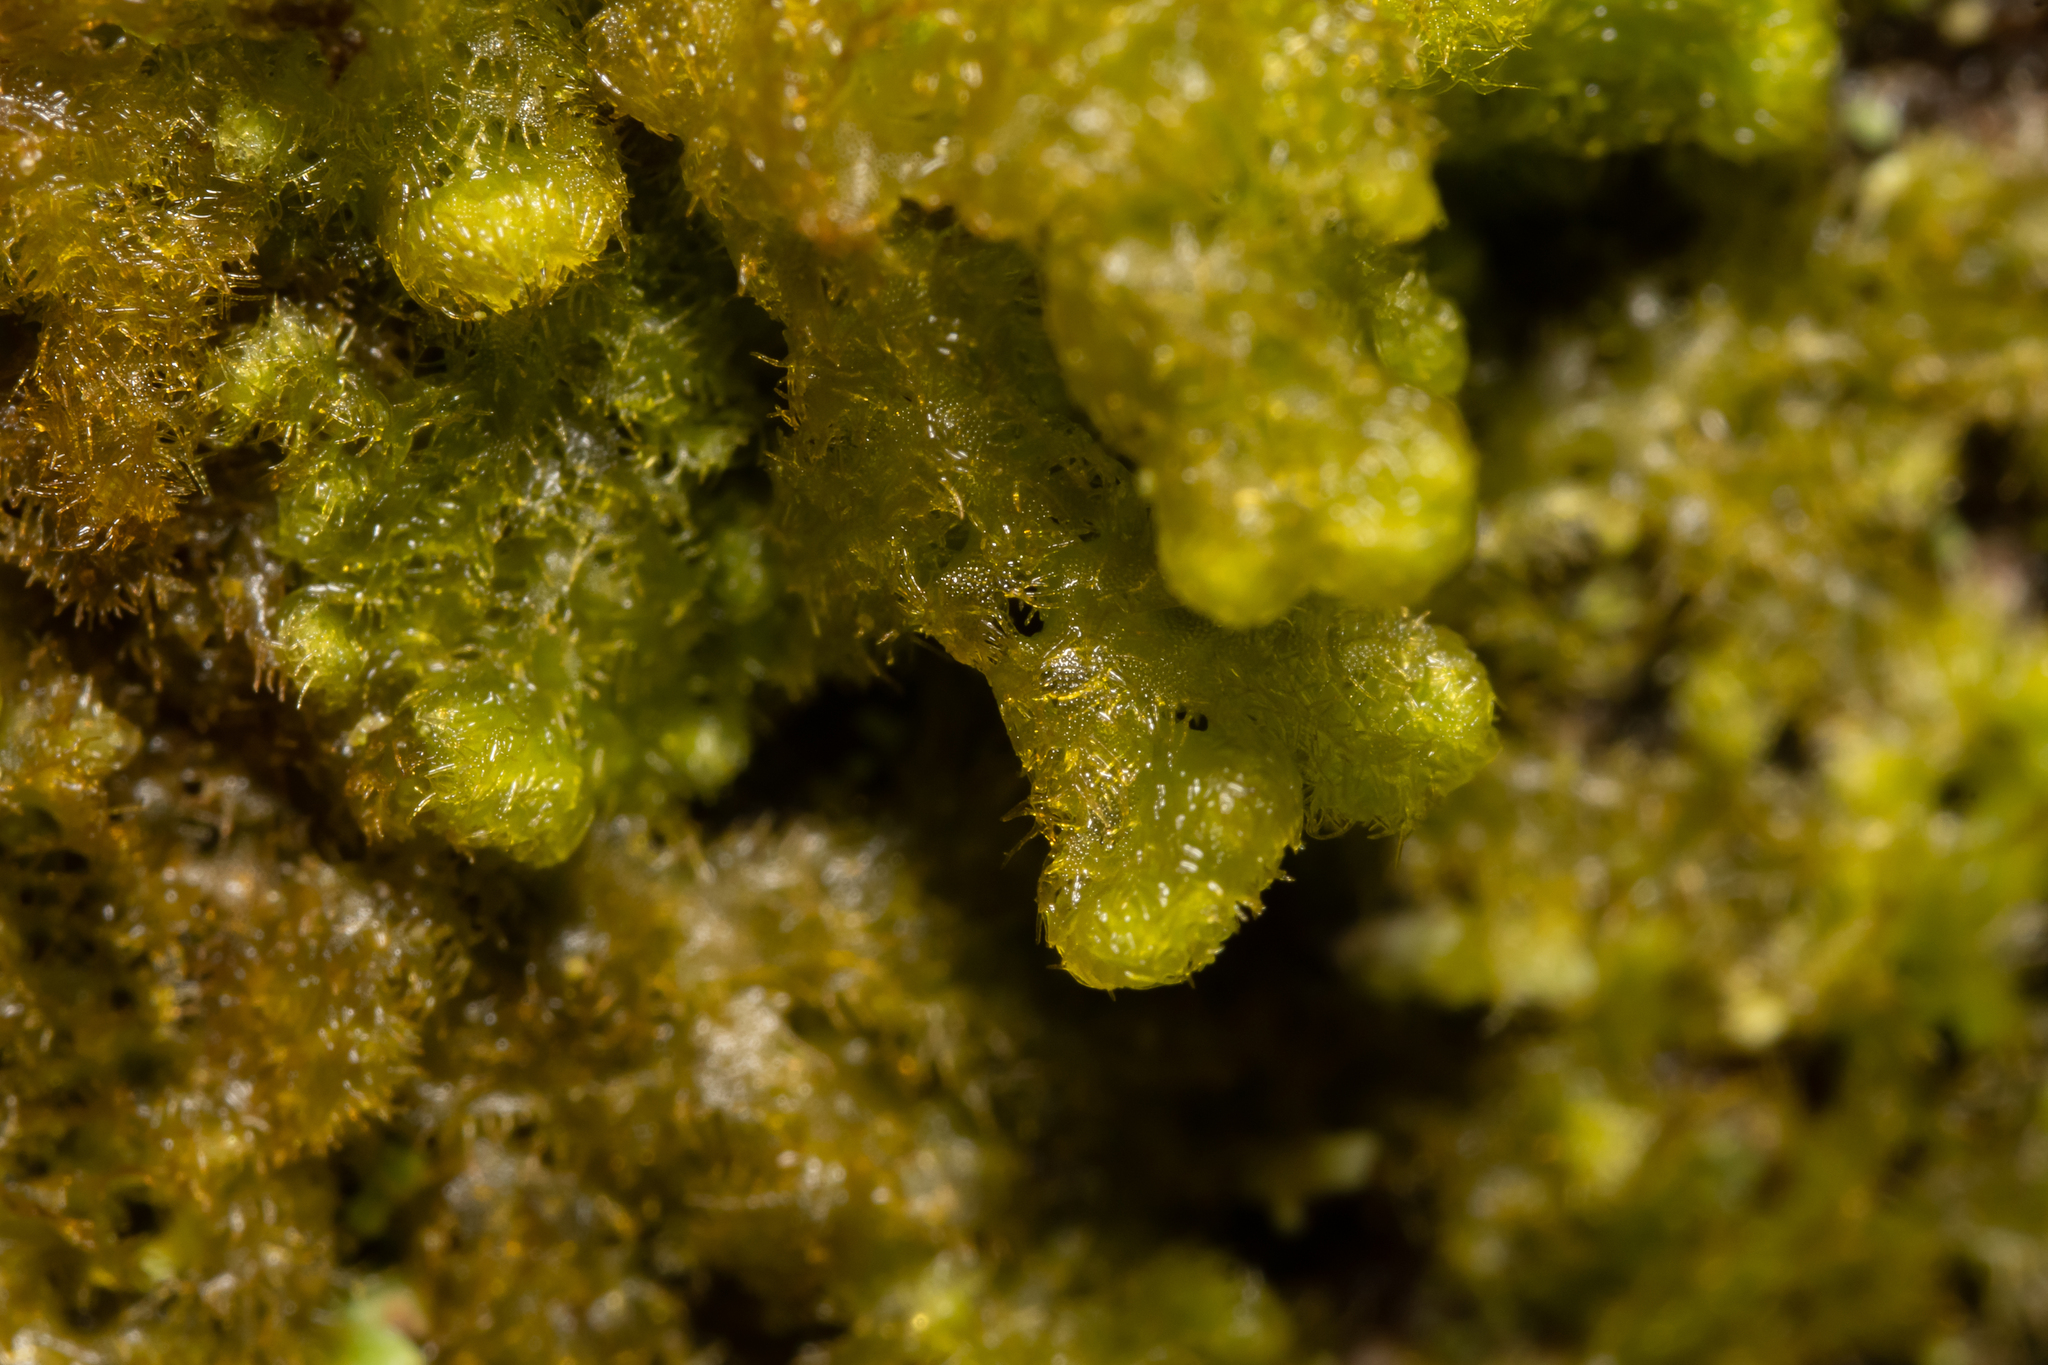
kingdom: Plantae
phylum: Marchantiophyta
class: Jungermanniopsida
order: Ptilidiales
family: Ptilidiaceae
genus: Ptilidium
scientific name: Ptilidium pulcherrimum
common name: Tree fringewort
